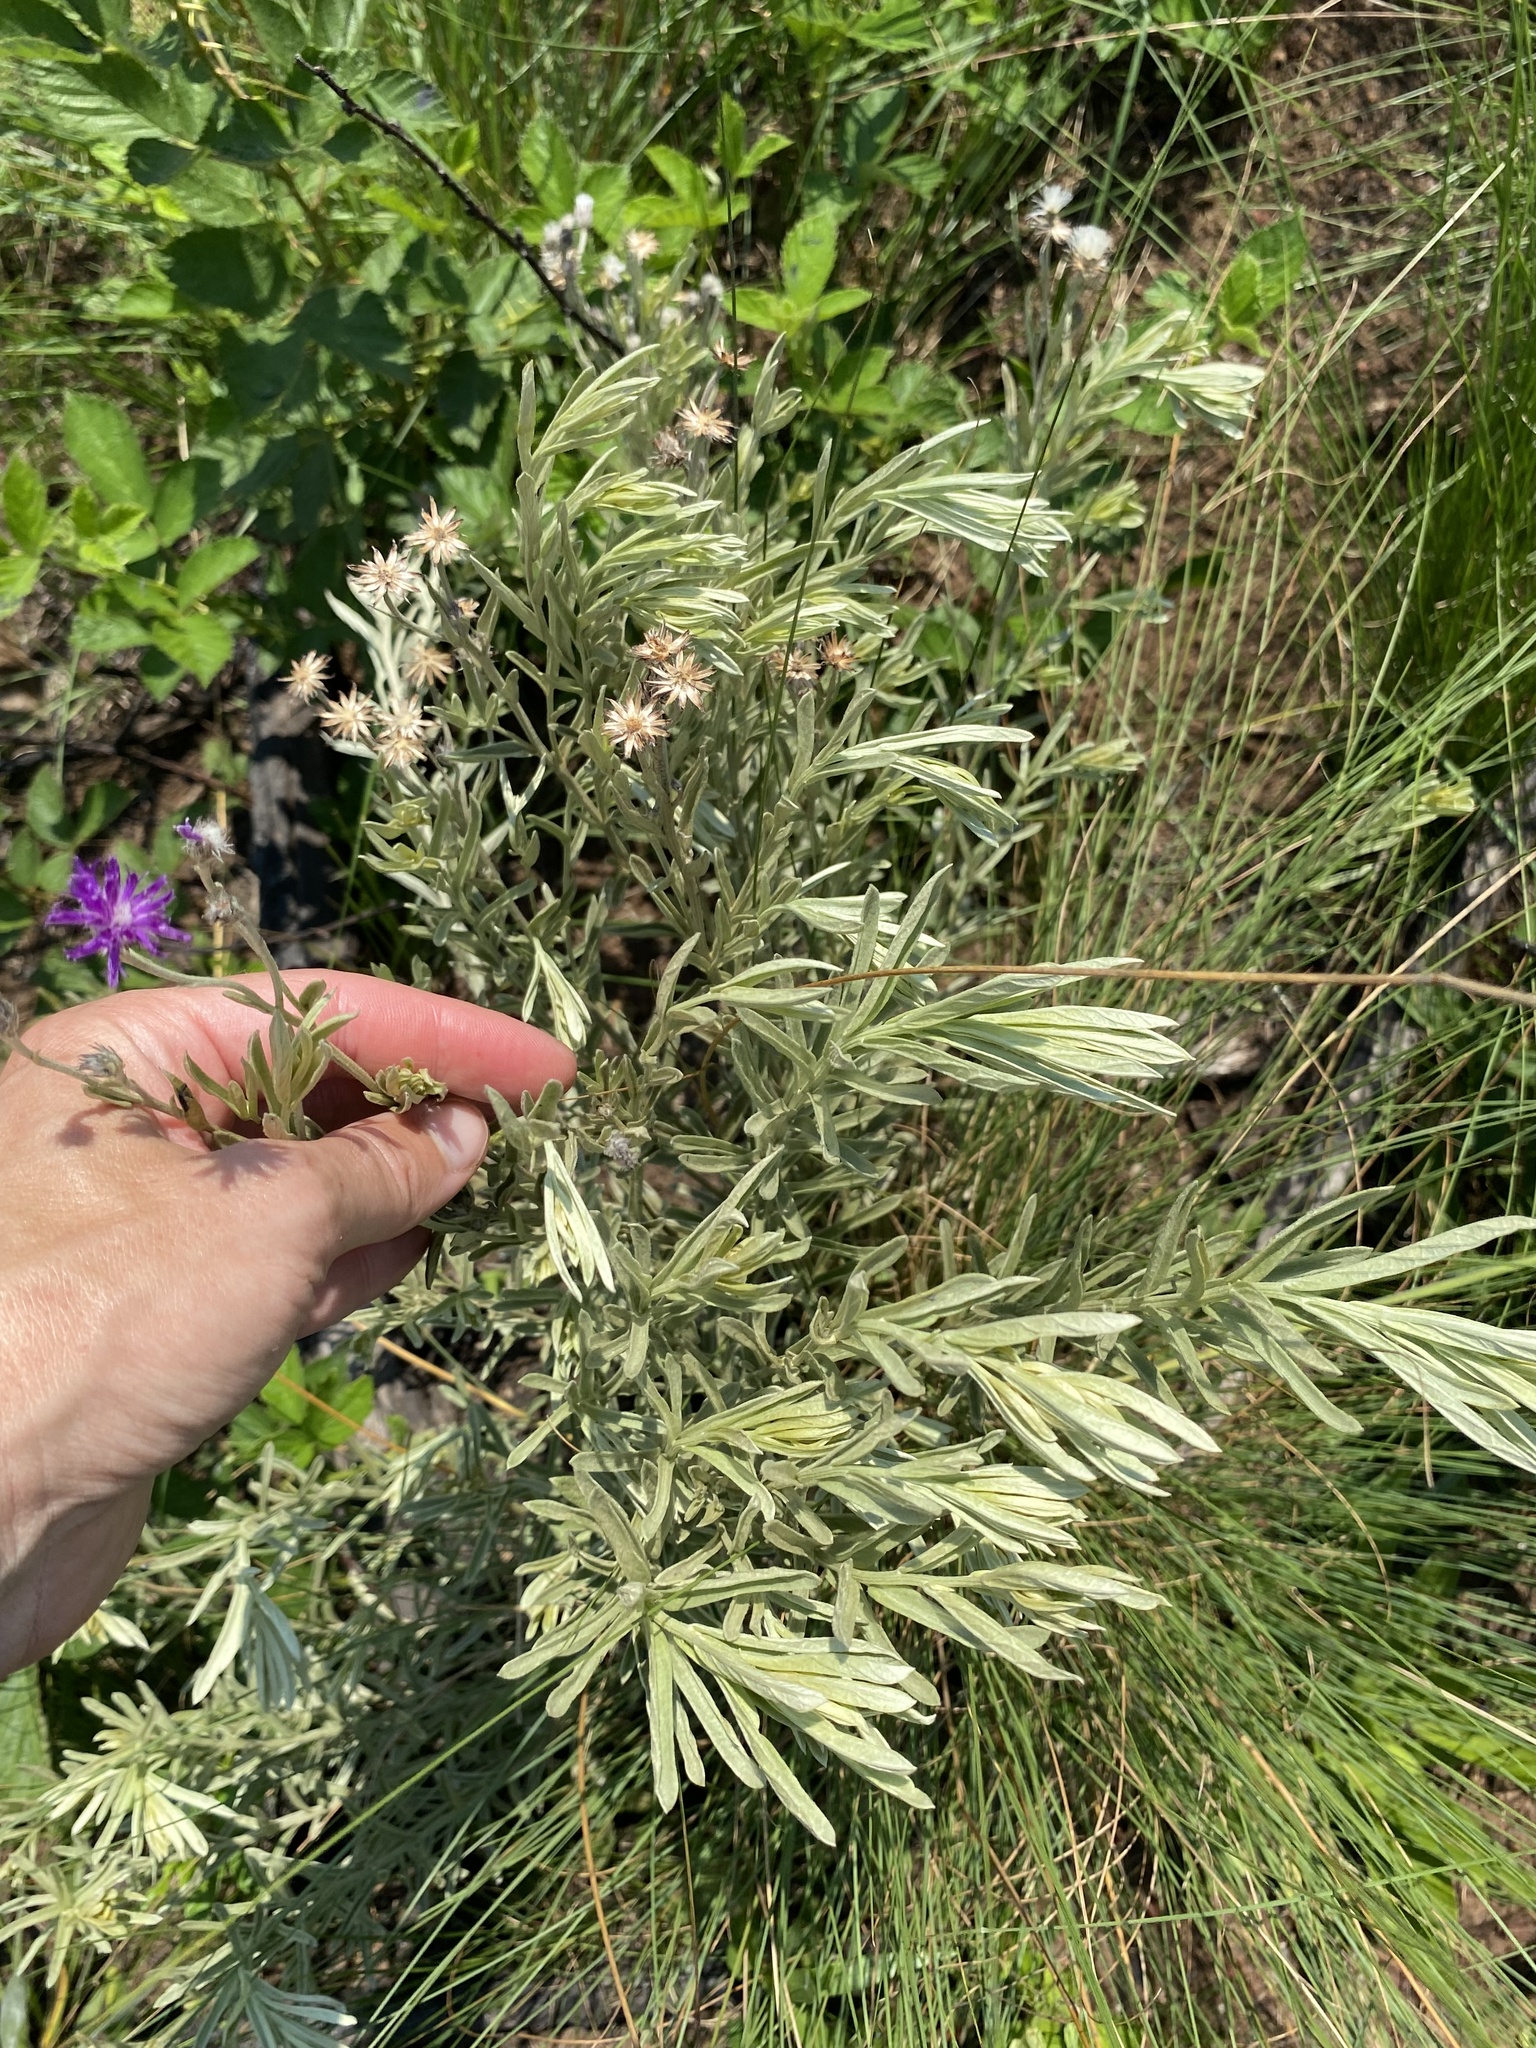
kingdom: Plantae
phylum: Tracheophyta
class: Magnoliopsida
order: Asterales
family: Asteraceae
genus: Hilliardiella
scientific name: Hilliardiella aristata
